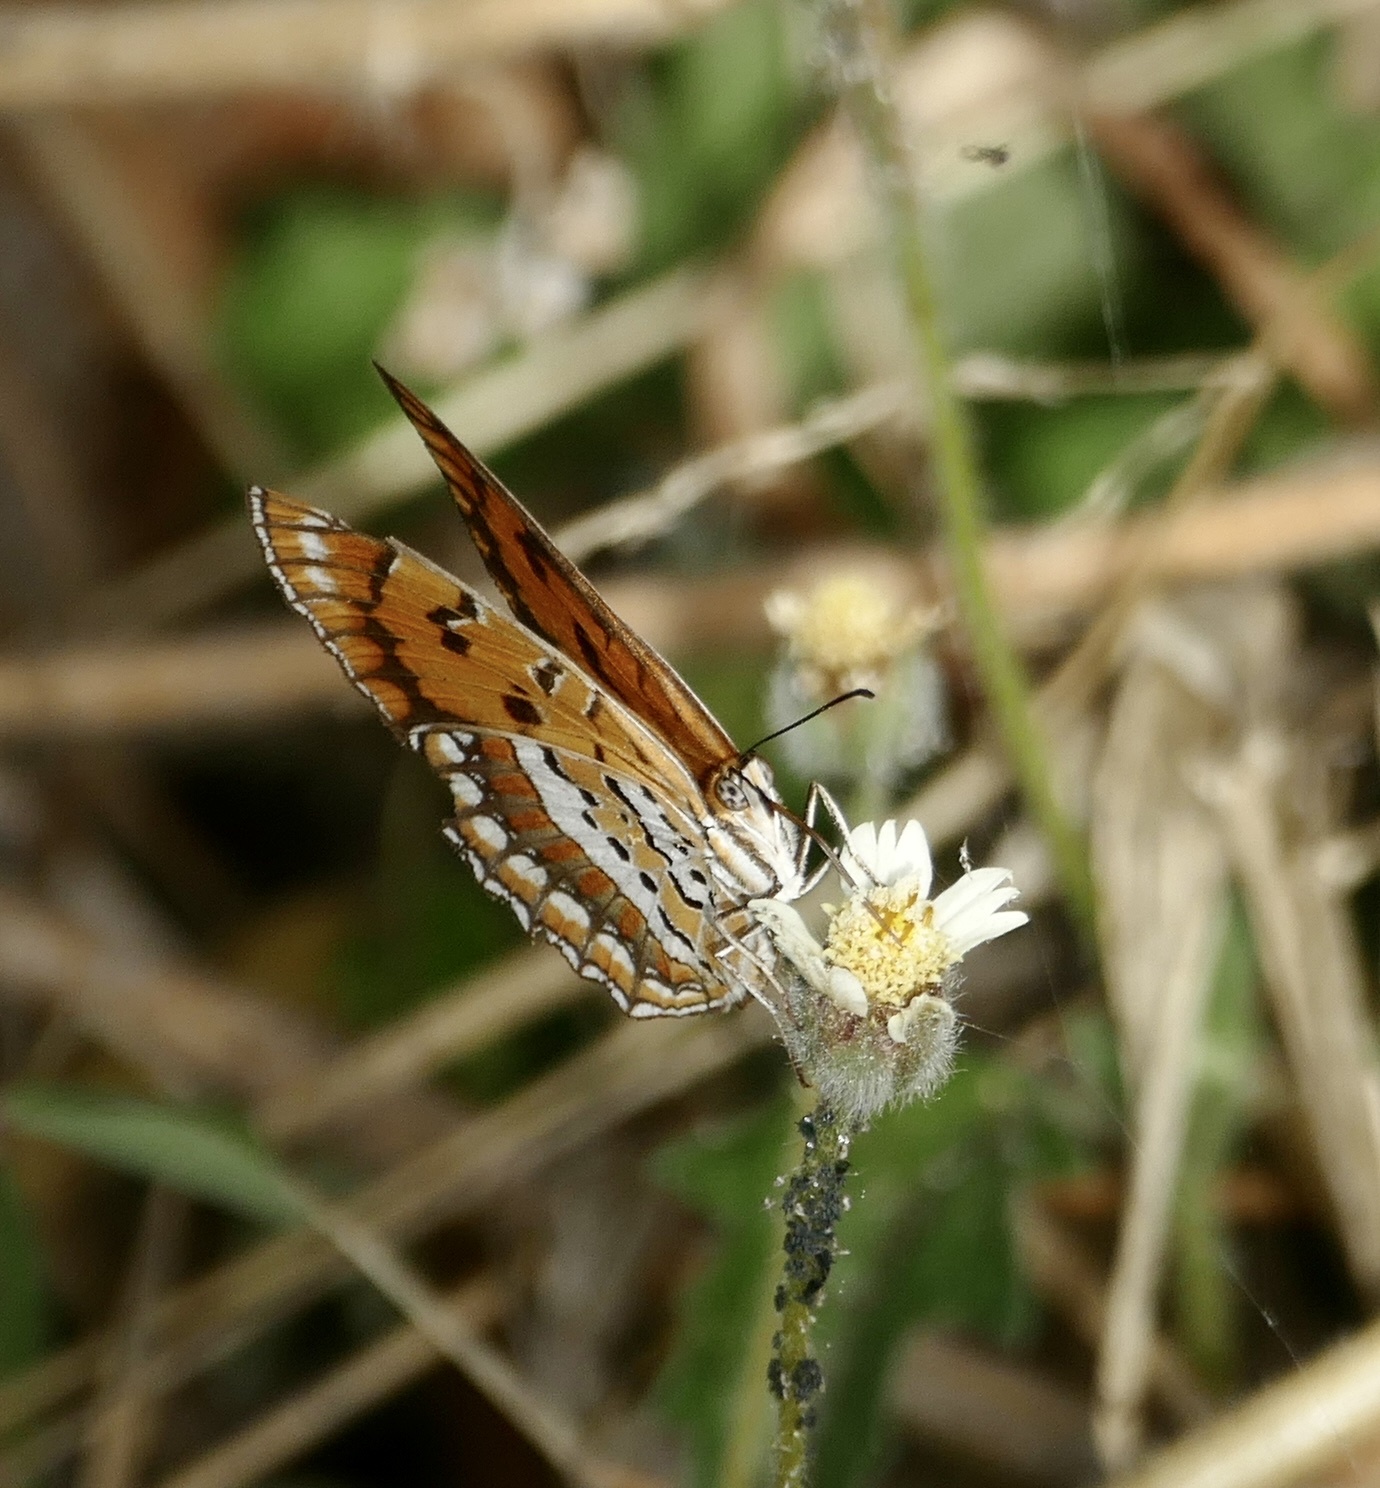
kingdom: Animalia
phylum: Arthropoda
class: Insecta
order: Lepidoptera
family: Nymphalidae
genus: Byblia
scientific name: Byblia ilithyia
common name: Spotted joker
